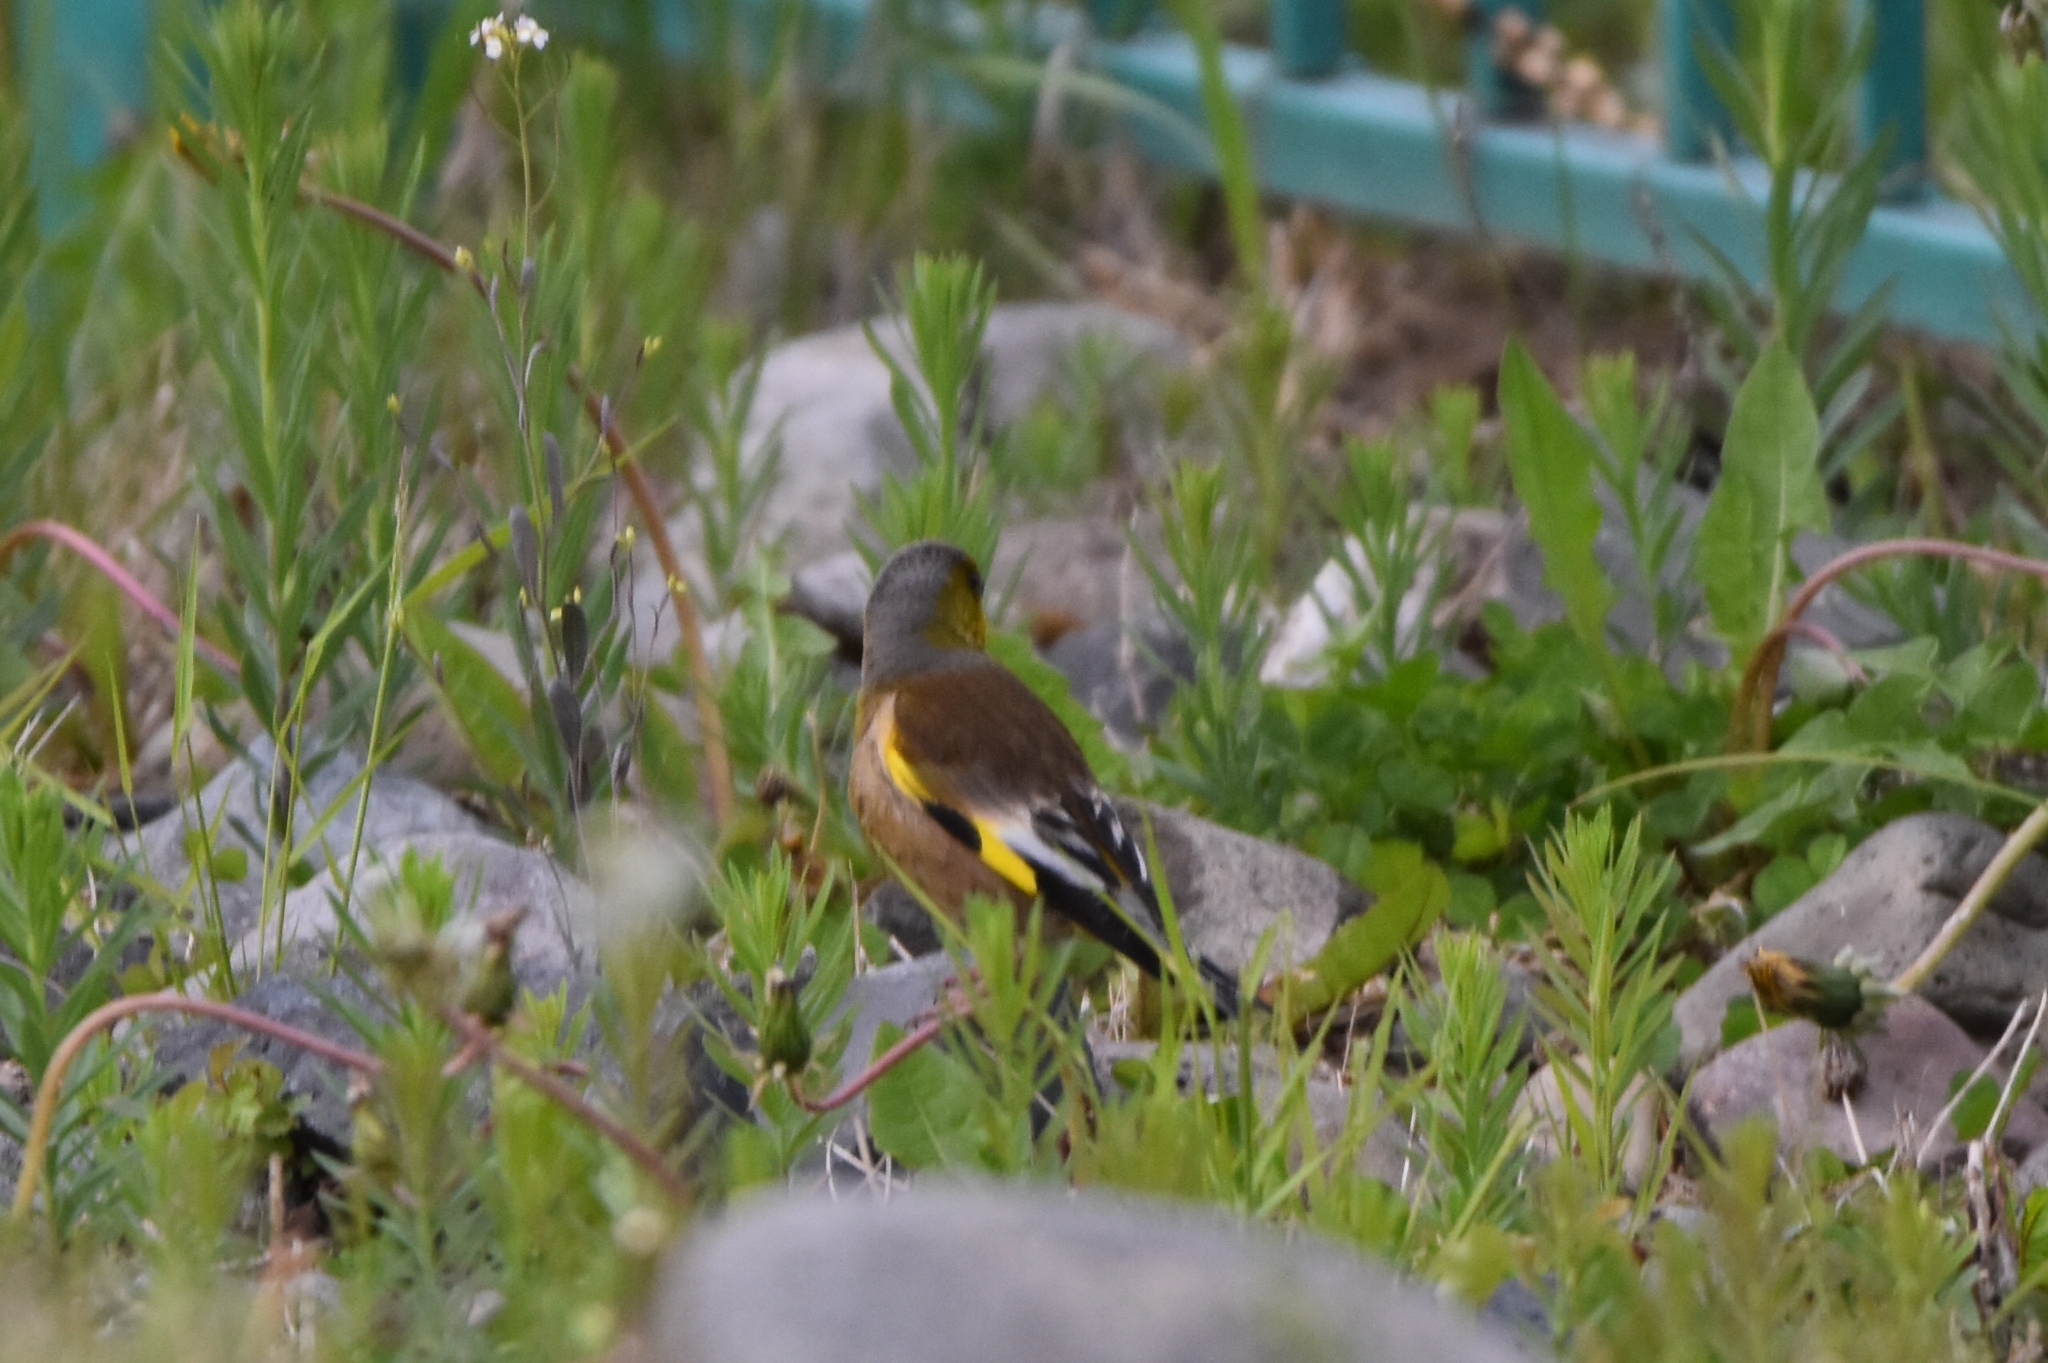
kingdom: Plantae
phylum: Tracheophyta
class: Liliopsida
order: Poales
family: Poaceae
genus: Chloris
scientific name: Chloris sinica
